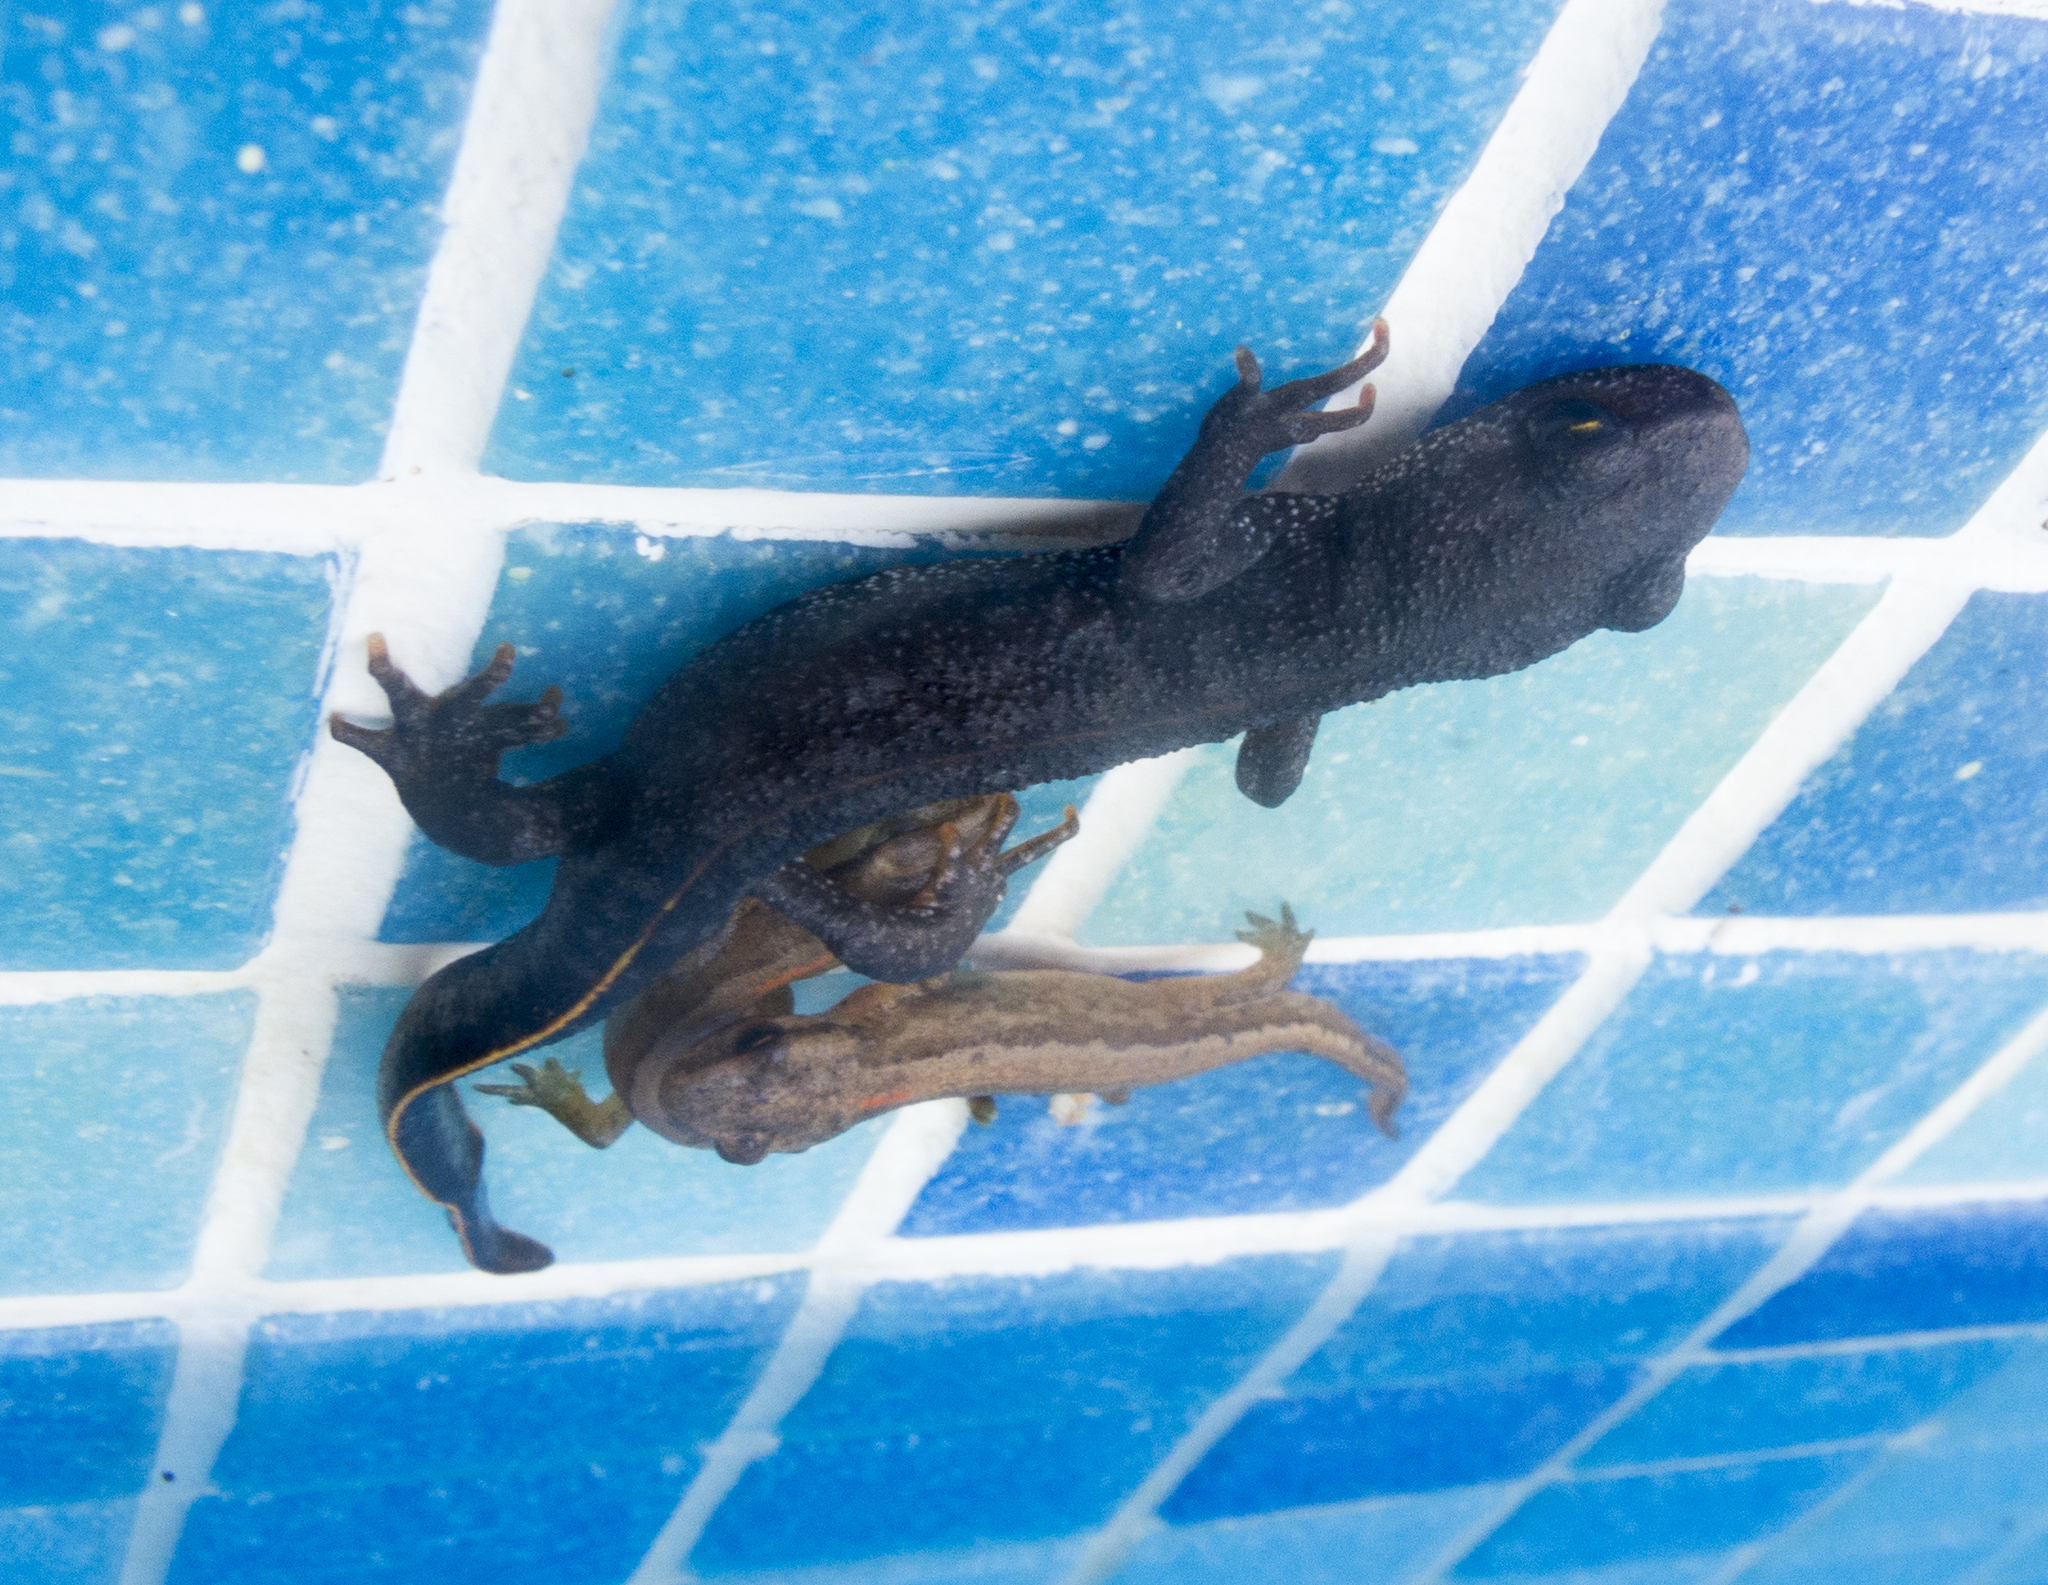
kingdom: Animalia
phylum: Chordata
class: Amphibia
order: Caudata
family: Salamandridae
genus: Triturus
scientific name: Triturus ivanbureschi
